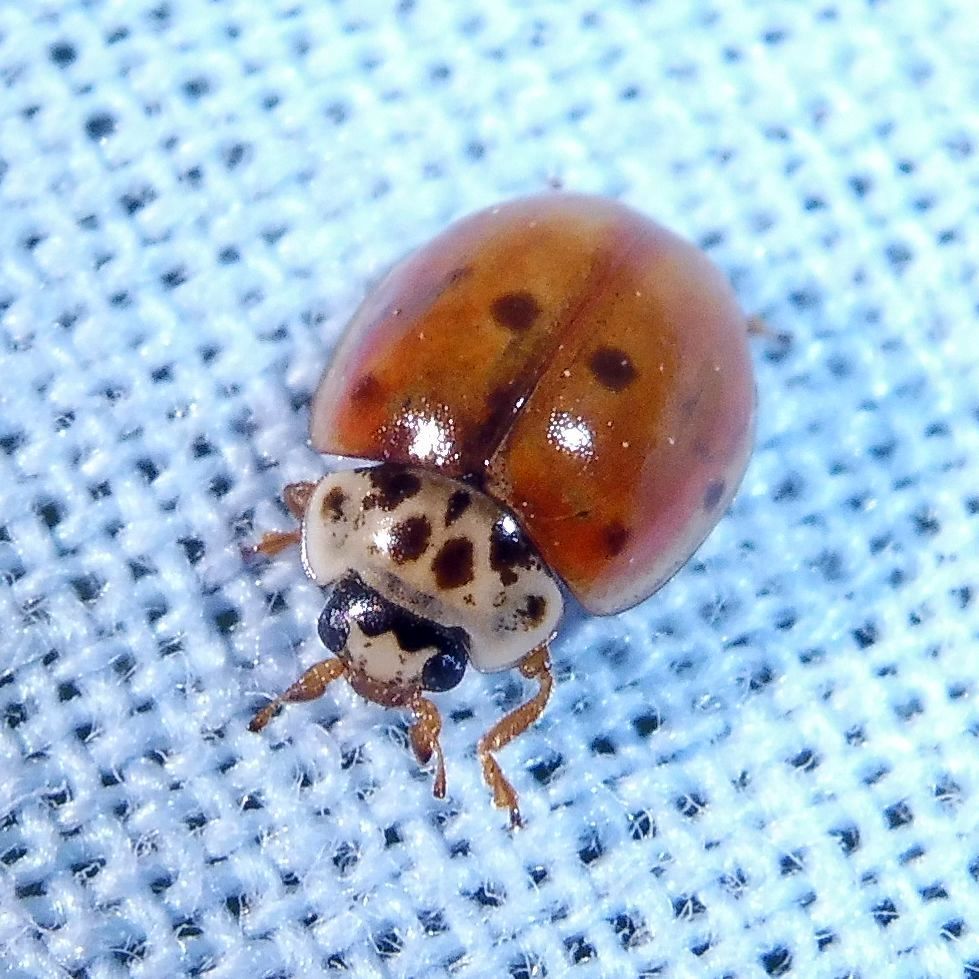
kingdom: Animalia
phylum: Arthropoda
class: Insecta
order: Coleoptera
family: Coccinellidae
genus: Adalia
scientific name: Adalia decempunctata
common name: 10-spot ladybird
